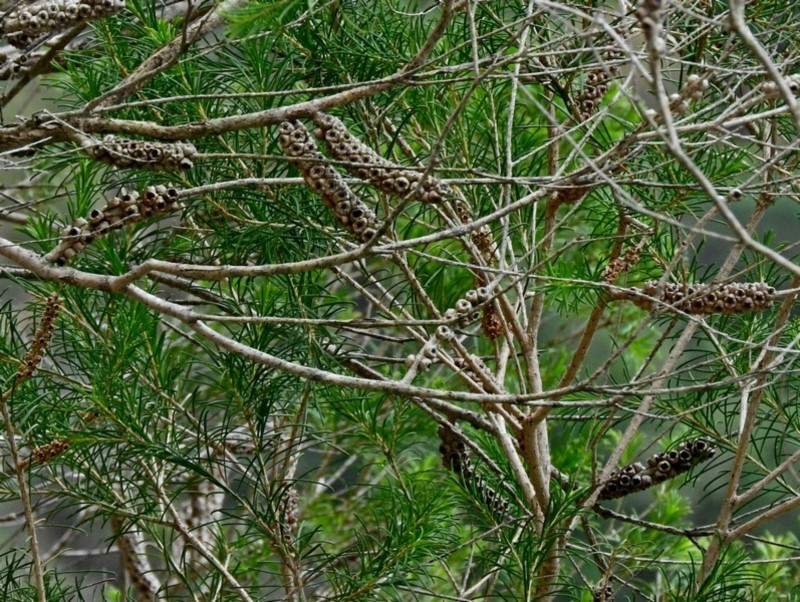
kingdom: Plantae
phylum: Tracheophyta
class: Magnoliopsida
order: Myrtales
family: Myrtaceae
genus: Melaleuca
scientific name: Melaleuca armillaris
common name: Bracelet honey myrtle
